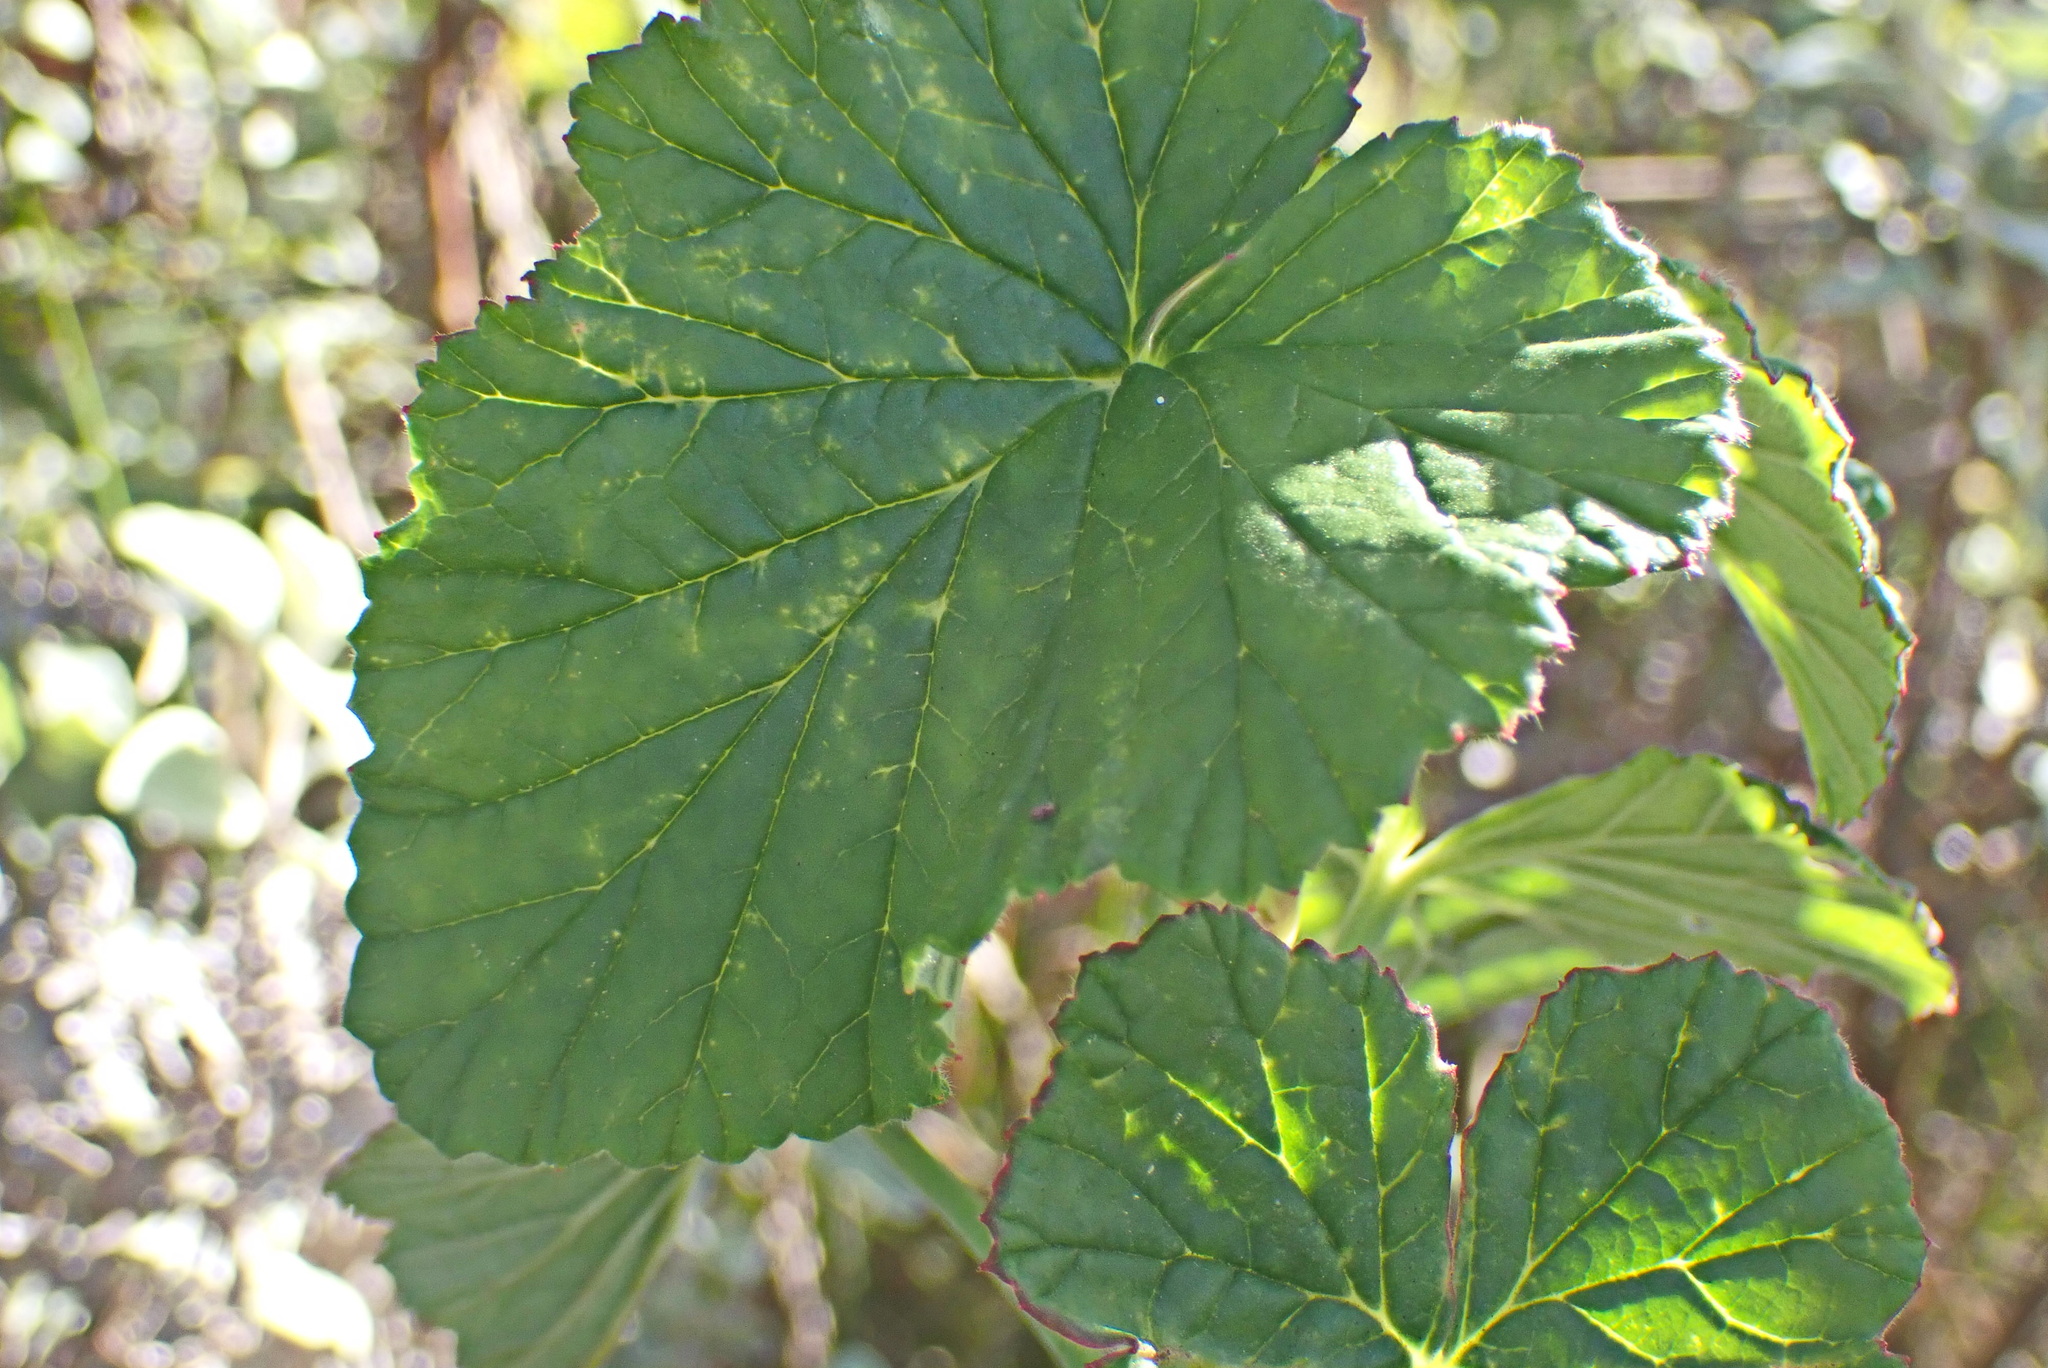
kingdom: Plantae
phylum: Tracheophyta
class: Magnoliopsida
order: Geraniales
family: Geraniaceae
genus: Pelargonium
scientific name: Pelargonium cordifolium
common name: Heart-leaf pelargonium
